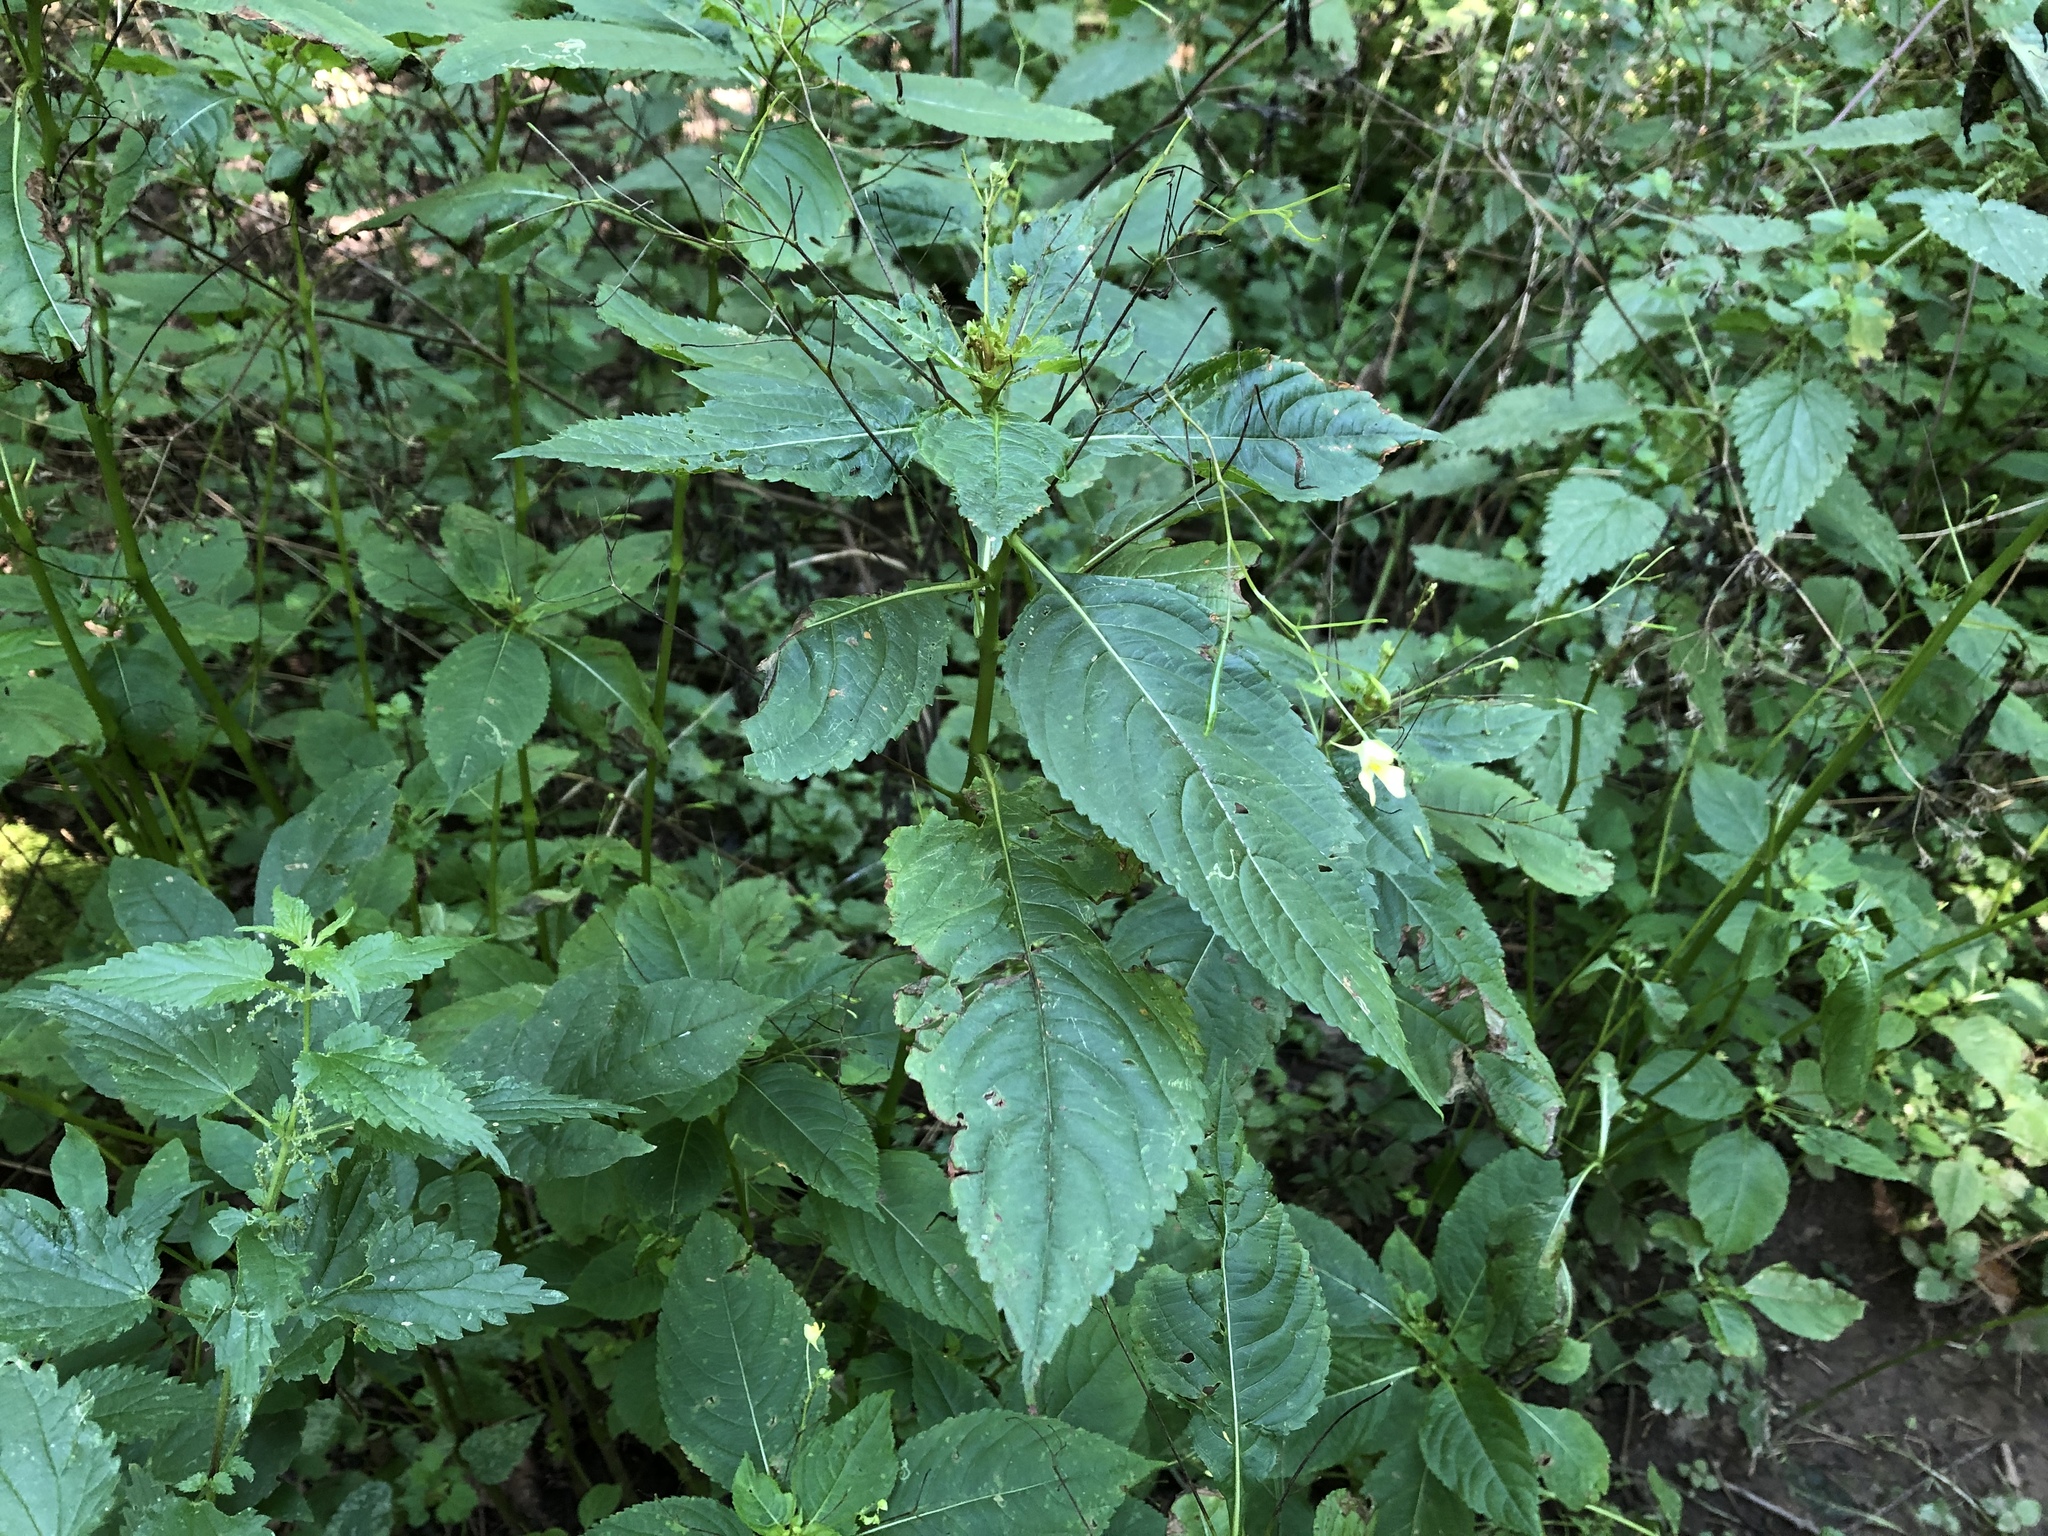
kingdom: Plantae
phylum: Tracheophyta
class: Magnoliopsida
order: Ericales
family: Balsaminaceae
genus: Impatiens
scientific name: Impatiens parviflora
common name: Small balsam
